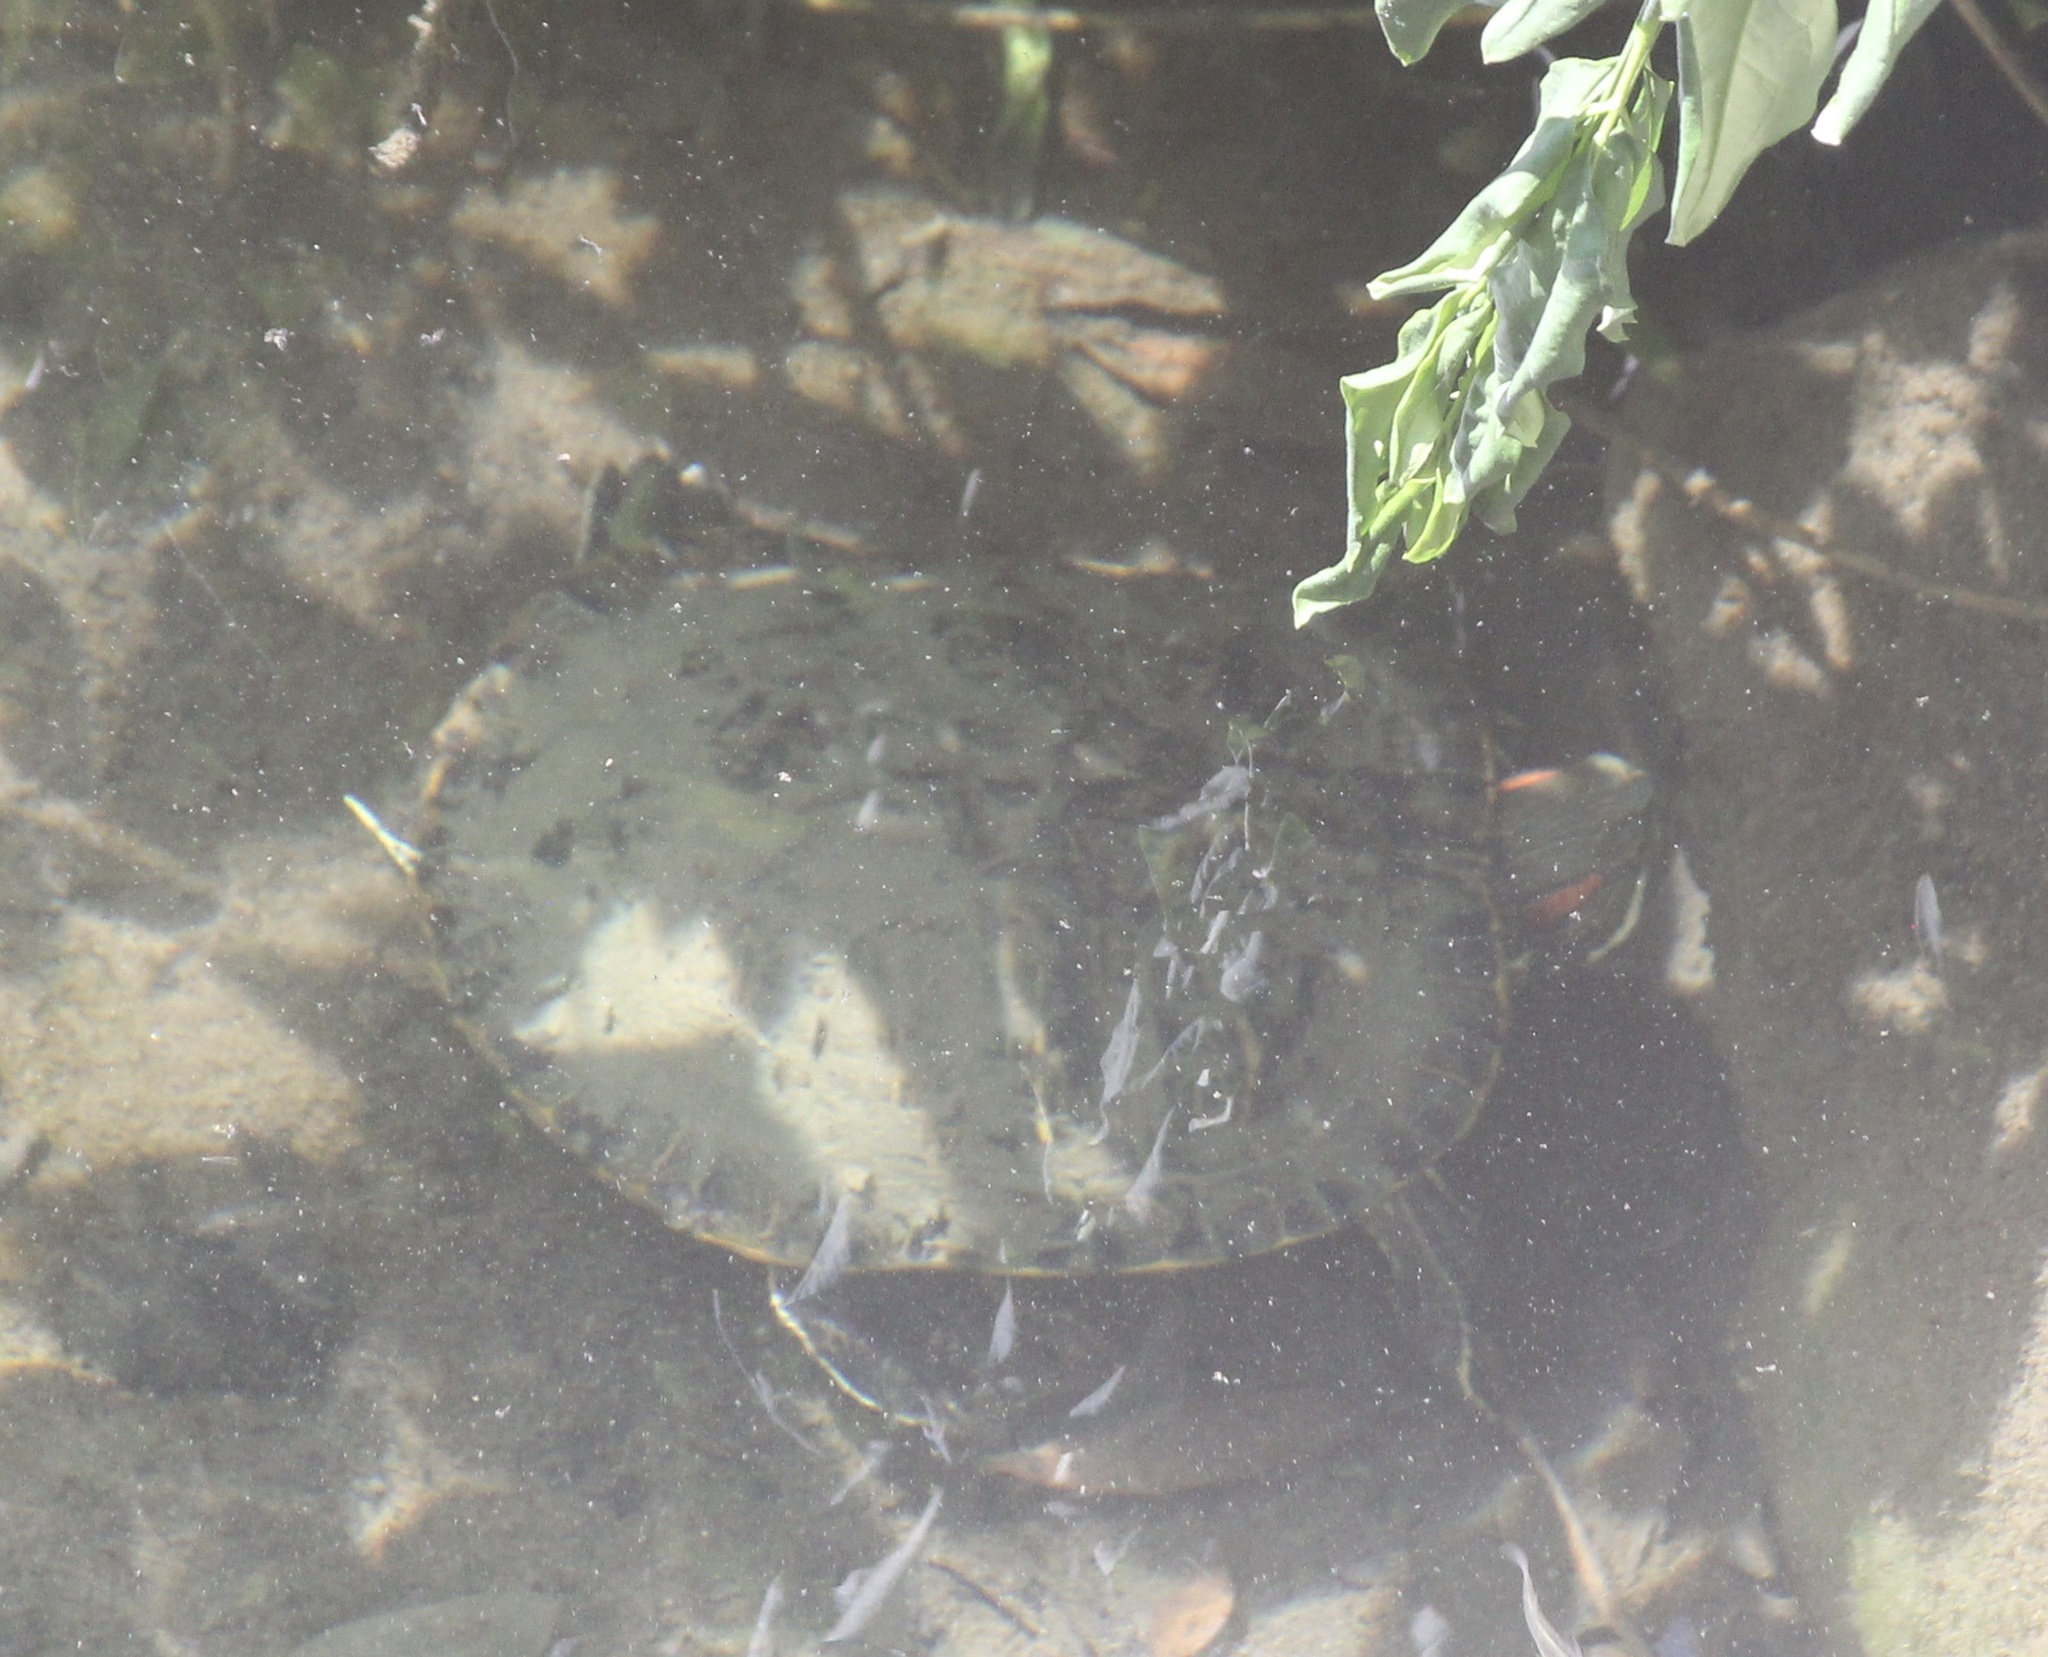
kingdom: Animalia
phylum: Chordata
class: Testudines
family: Emydidae
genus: Trachemys
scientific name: Trachemys scripta
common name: Slider
